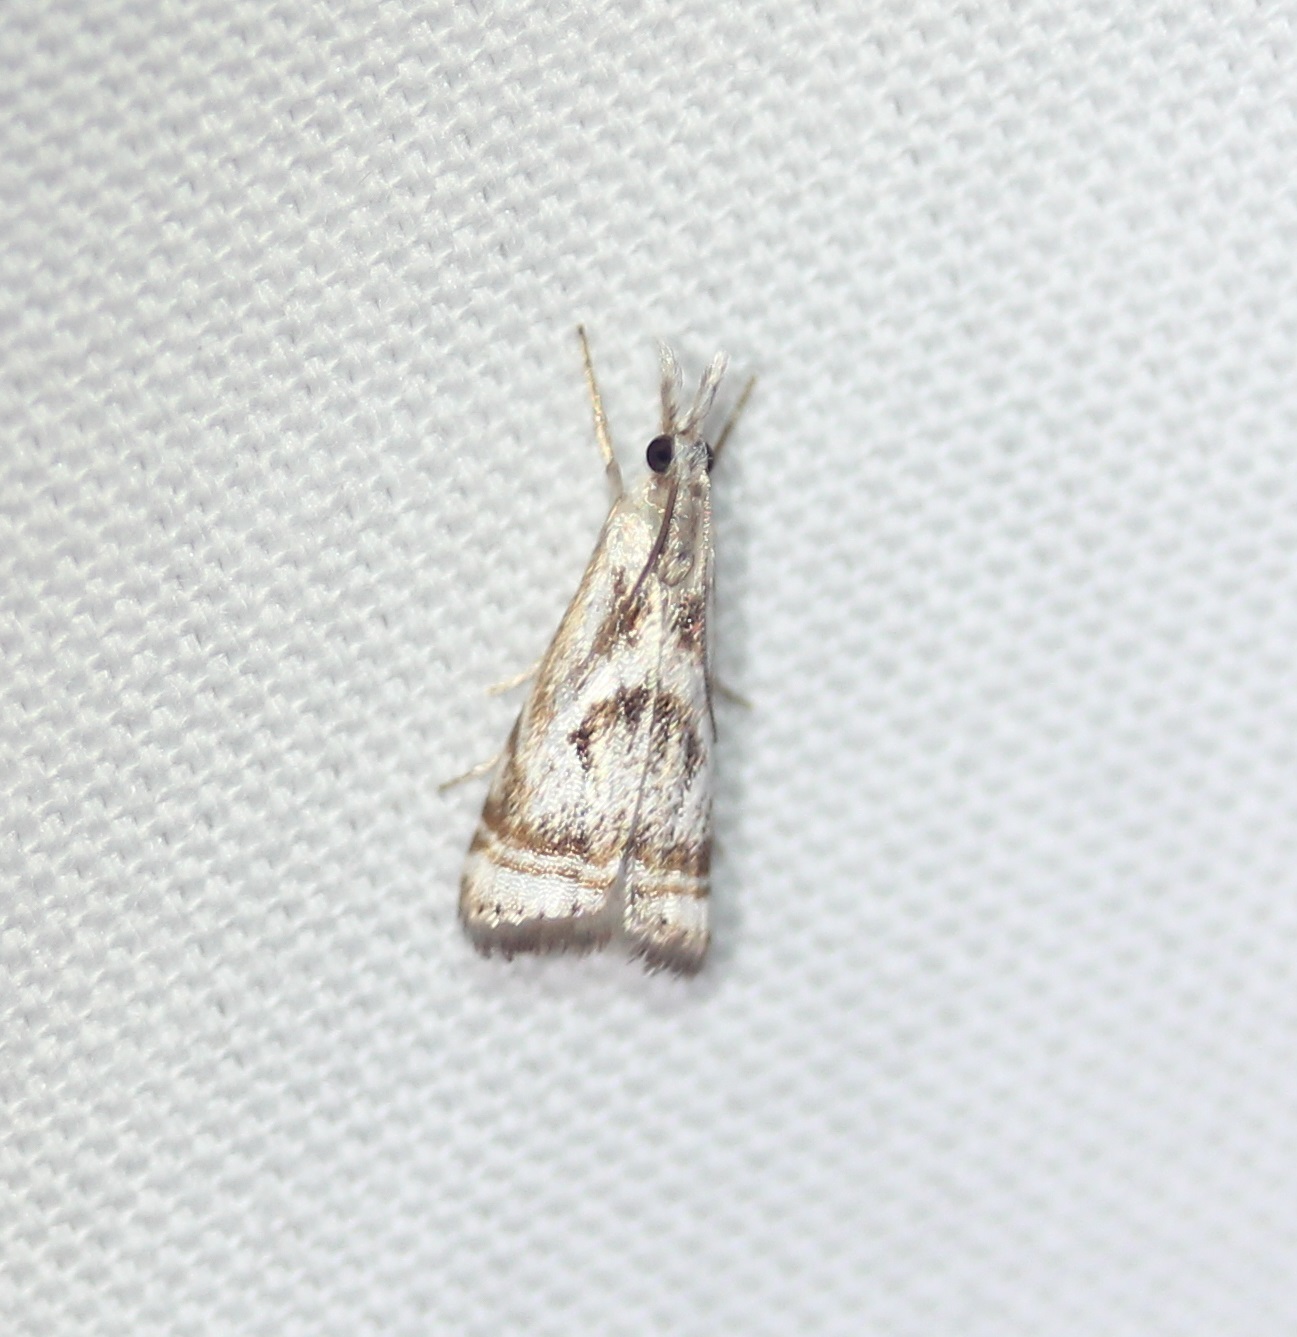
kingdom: Animalia
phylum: Arthropoda
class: Insecta
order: Lepidoptera
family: Crambidae
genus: Microcrambus
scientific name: Microcrambus elegans
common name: Elegant grass-veneer
